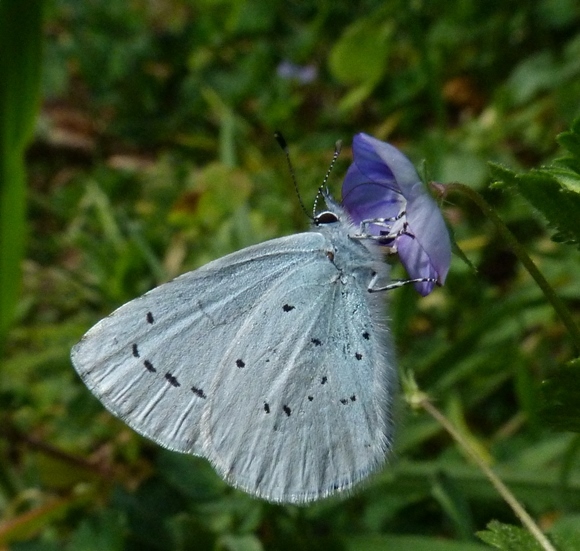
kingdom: Animalia
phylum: Arthropoda
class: Insecta
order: Lepidoptera
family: Lycaenidae
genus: Celastrina
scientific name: Celastrina argiolus
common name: Holly blue
